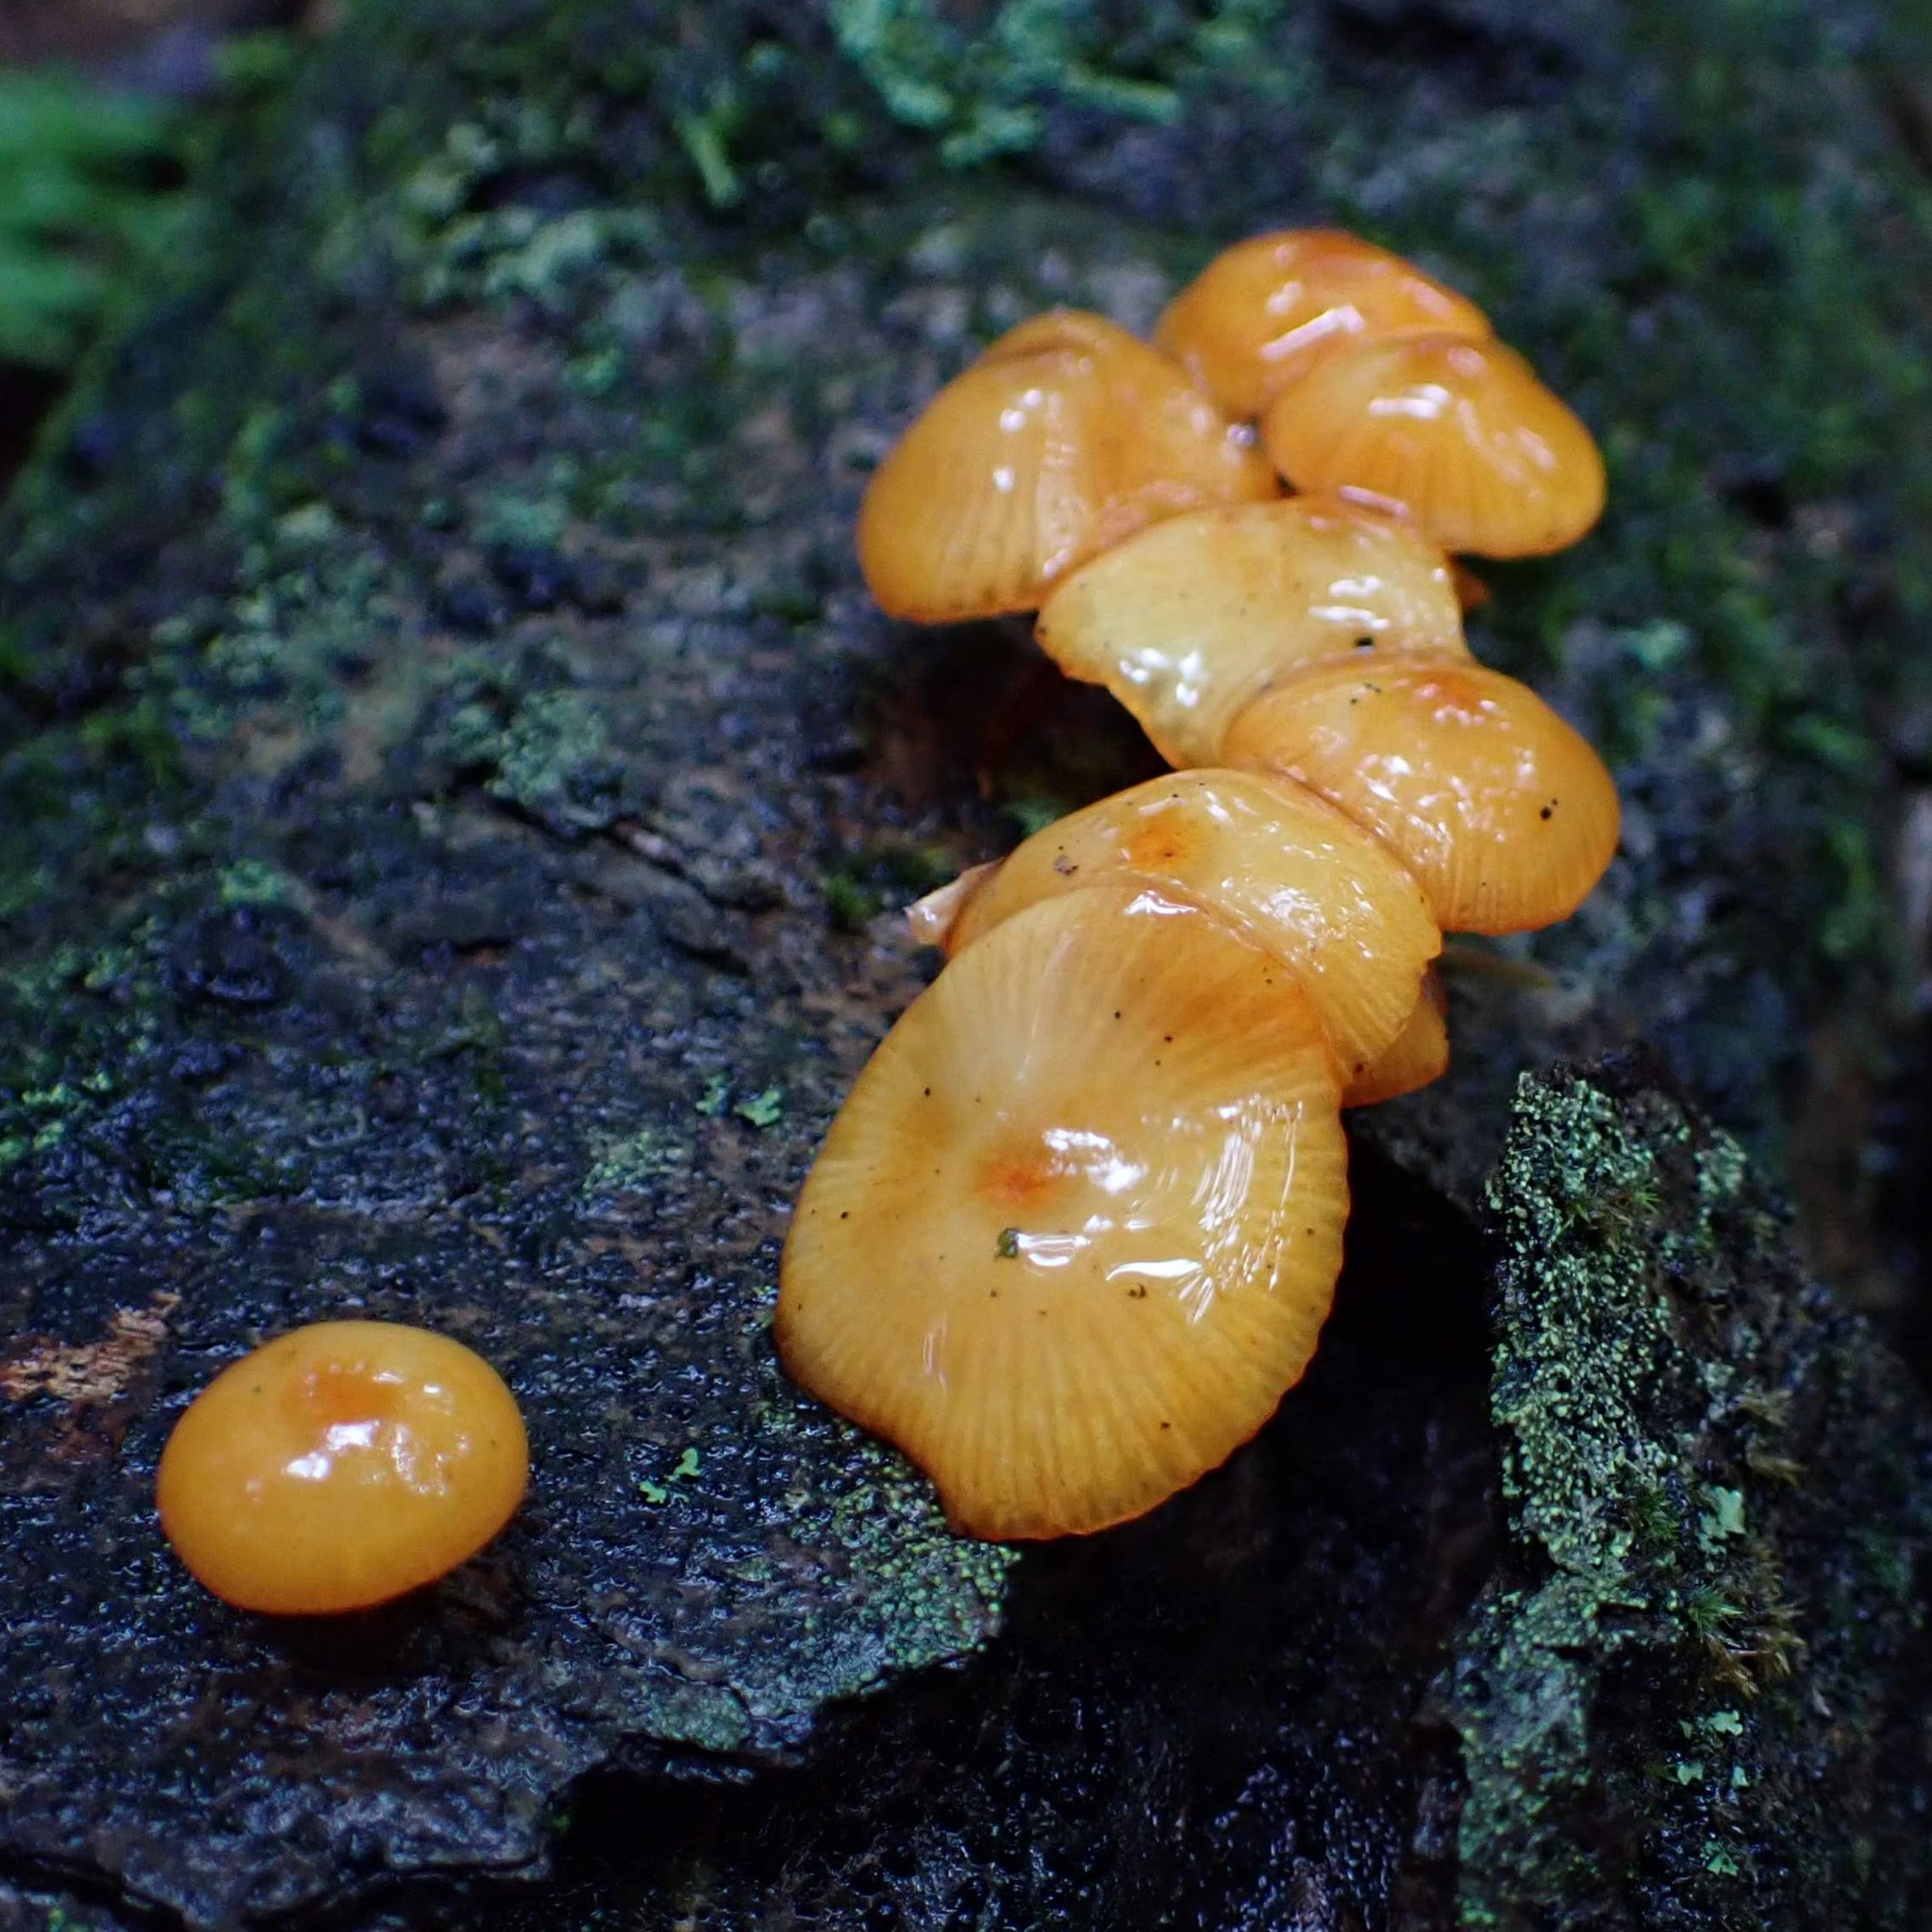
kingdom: Fungi
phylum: Basidiomycota
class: Agaricomycetes
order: Agaricales
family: Mycenaceae
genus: Mycena
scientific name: Mycena leaiana
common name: Orange mycena
